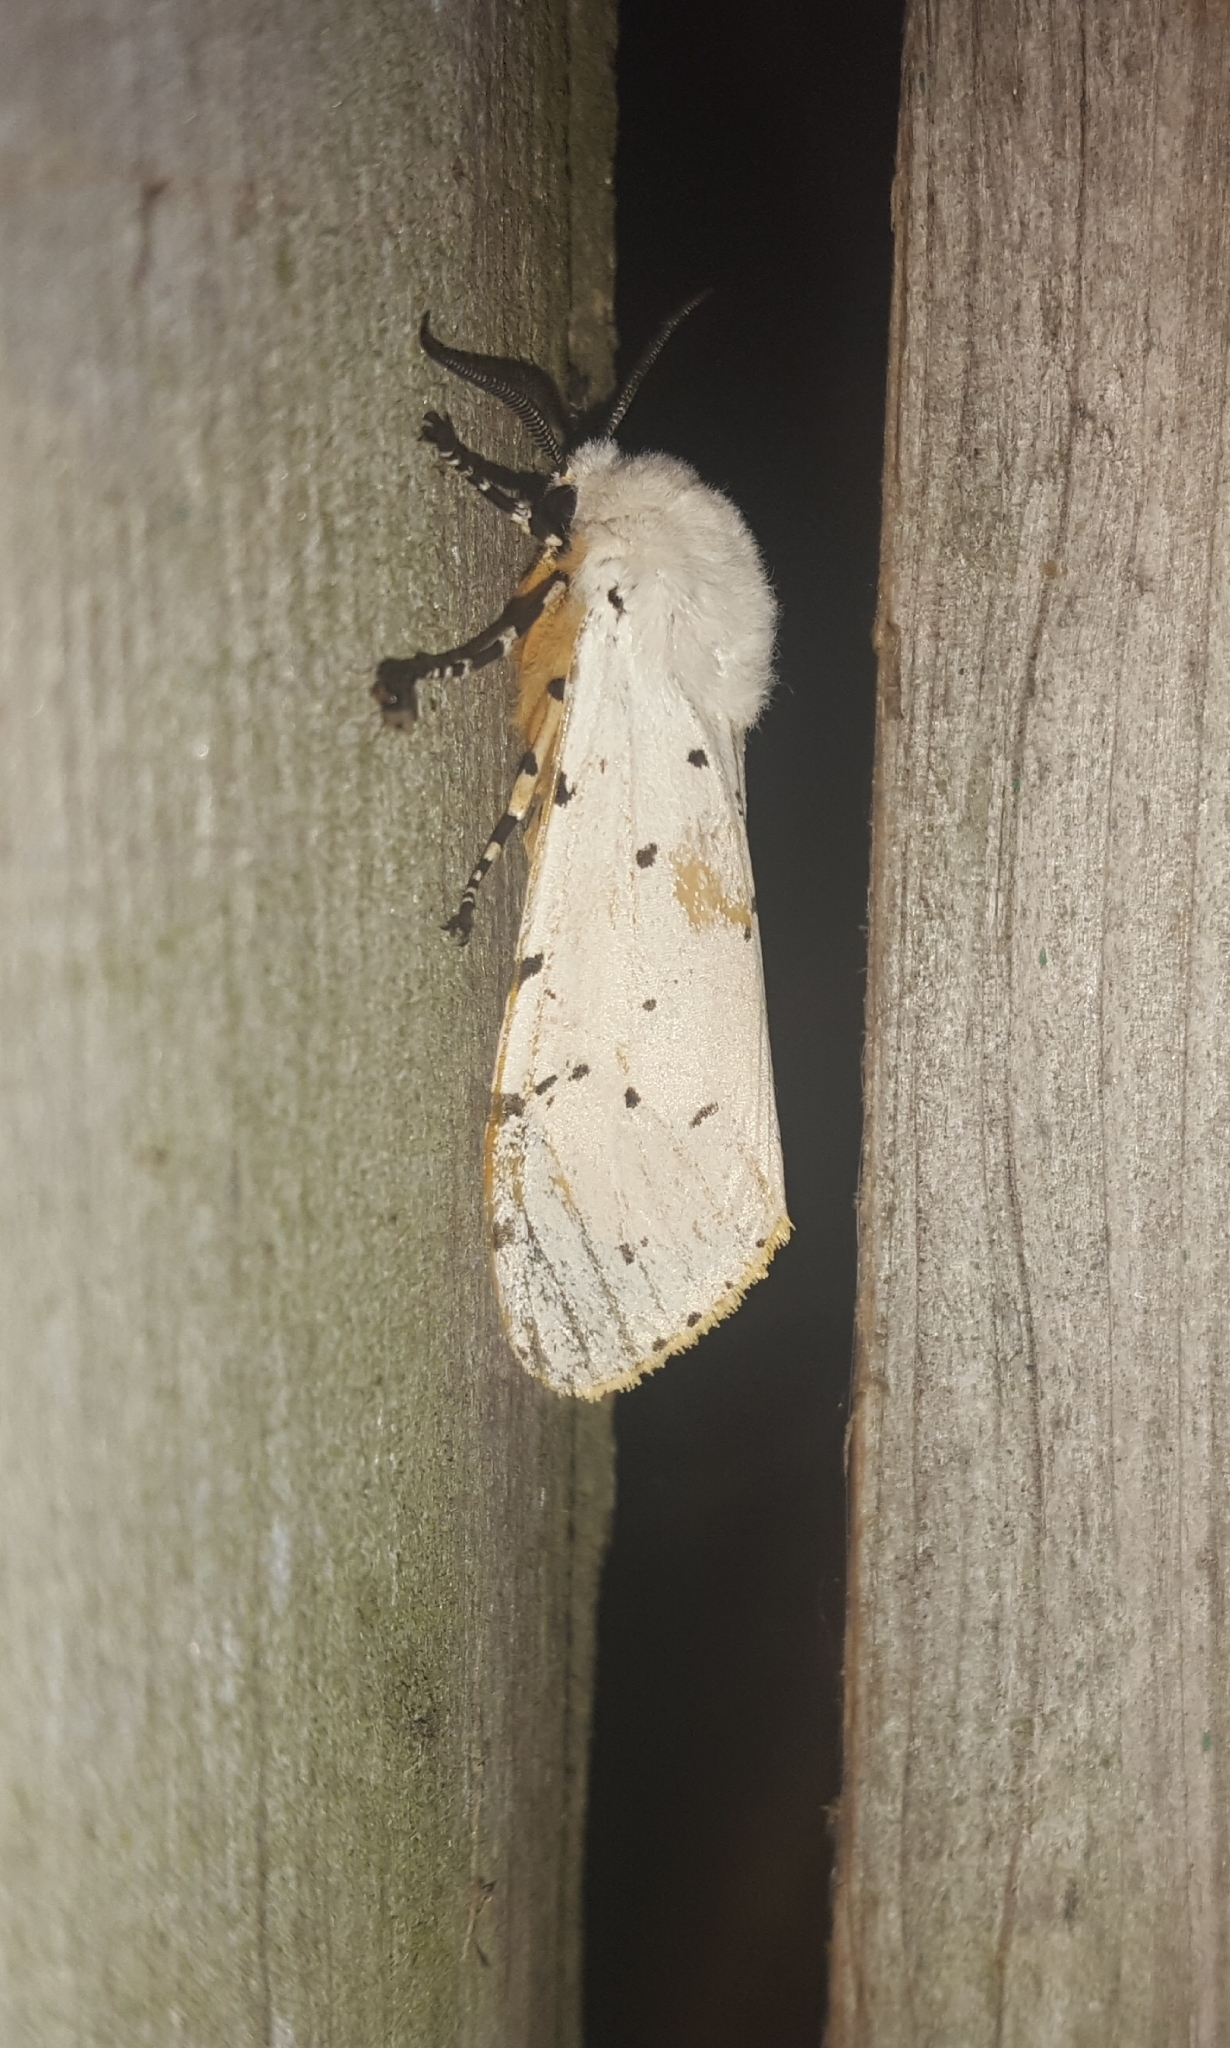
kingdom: Animalia
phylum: Arthropoda
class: Insecta
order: Lepidoptera
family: Erebidae
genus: Estigmene
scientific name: Estigmene acrea
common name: Salt marsh moth
